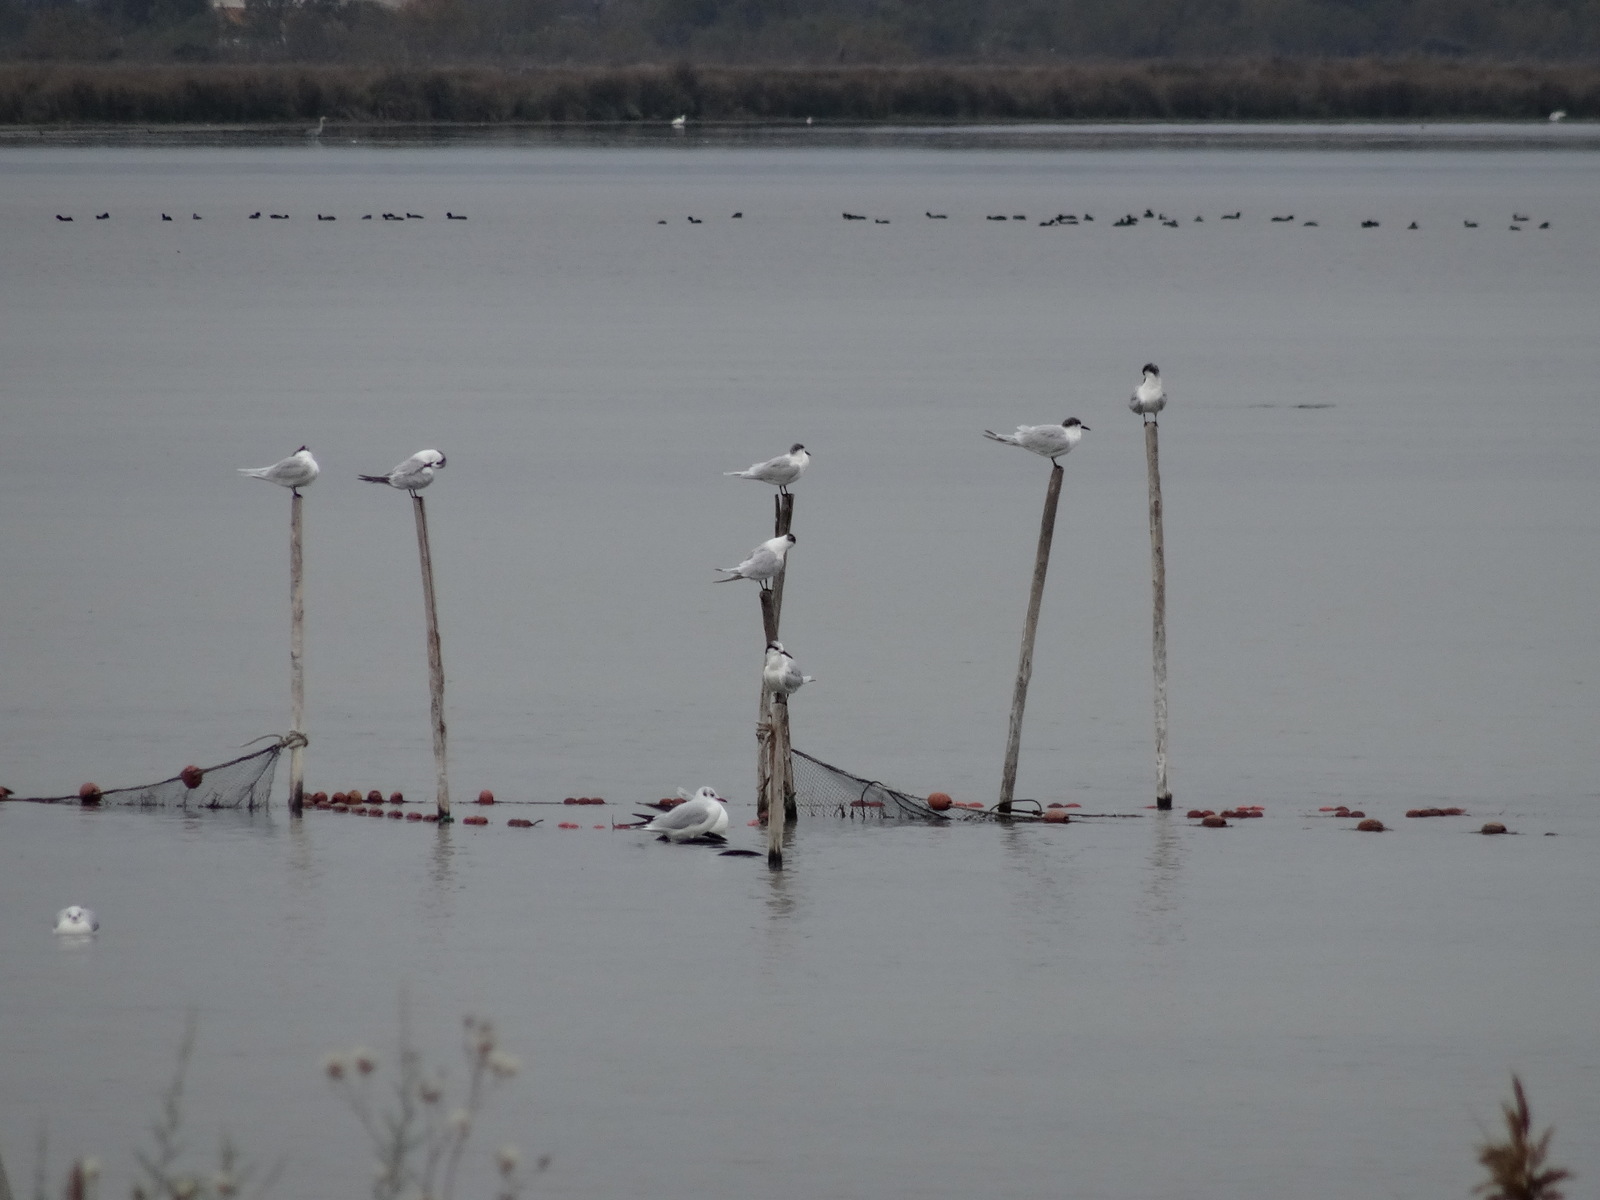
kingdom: Animalia
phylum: Chordata
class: Aves
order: Charadriiformes
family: Laridae
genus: Thalasseus
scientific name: Thalasseus sandvicensis
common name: Sandwich tern
